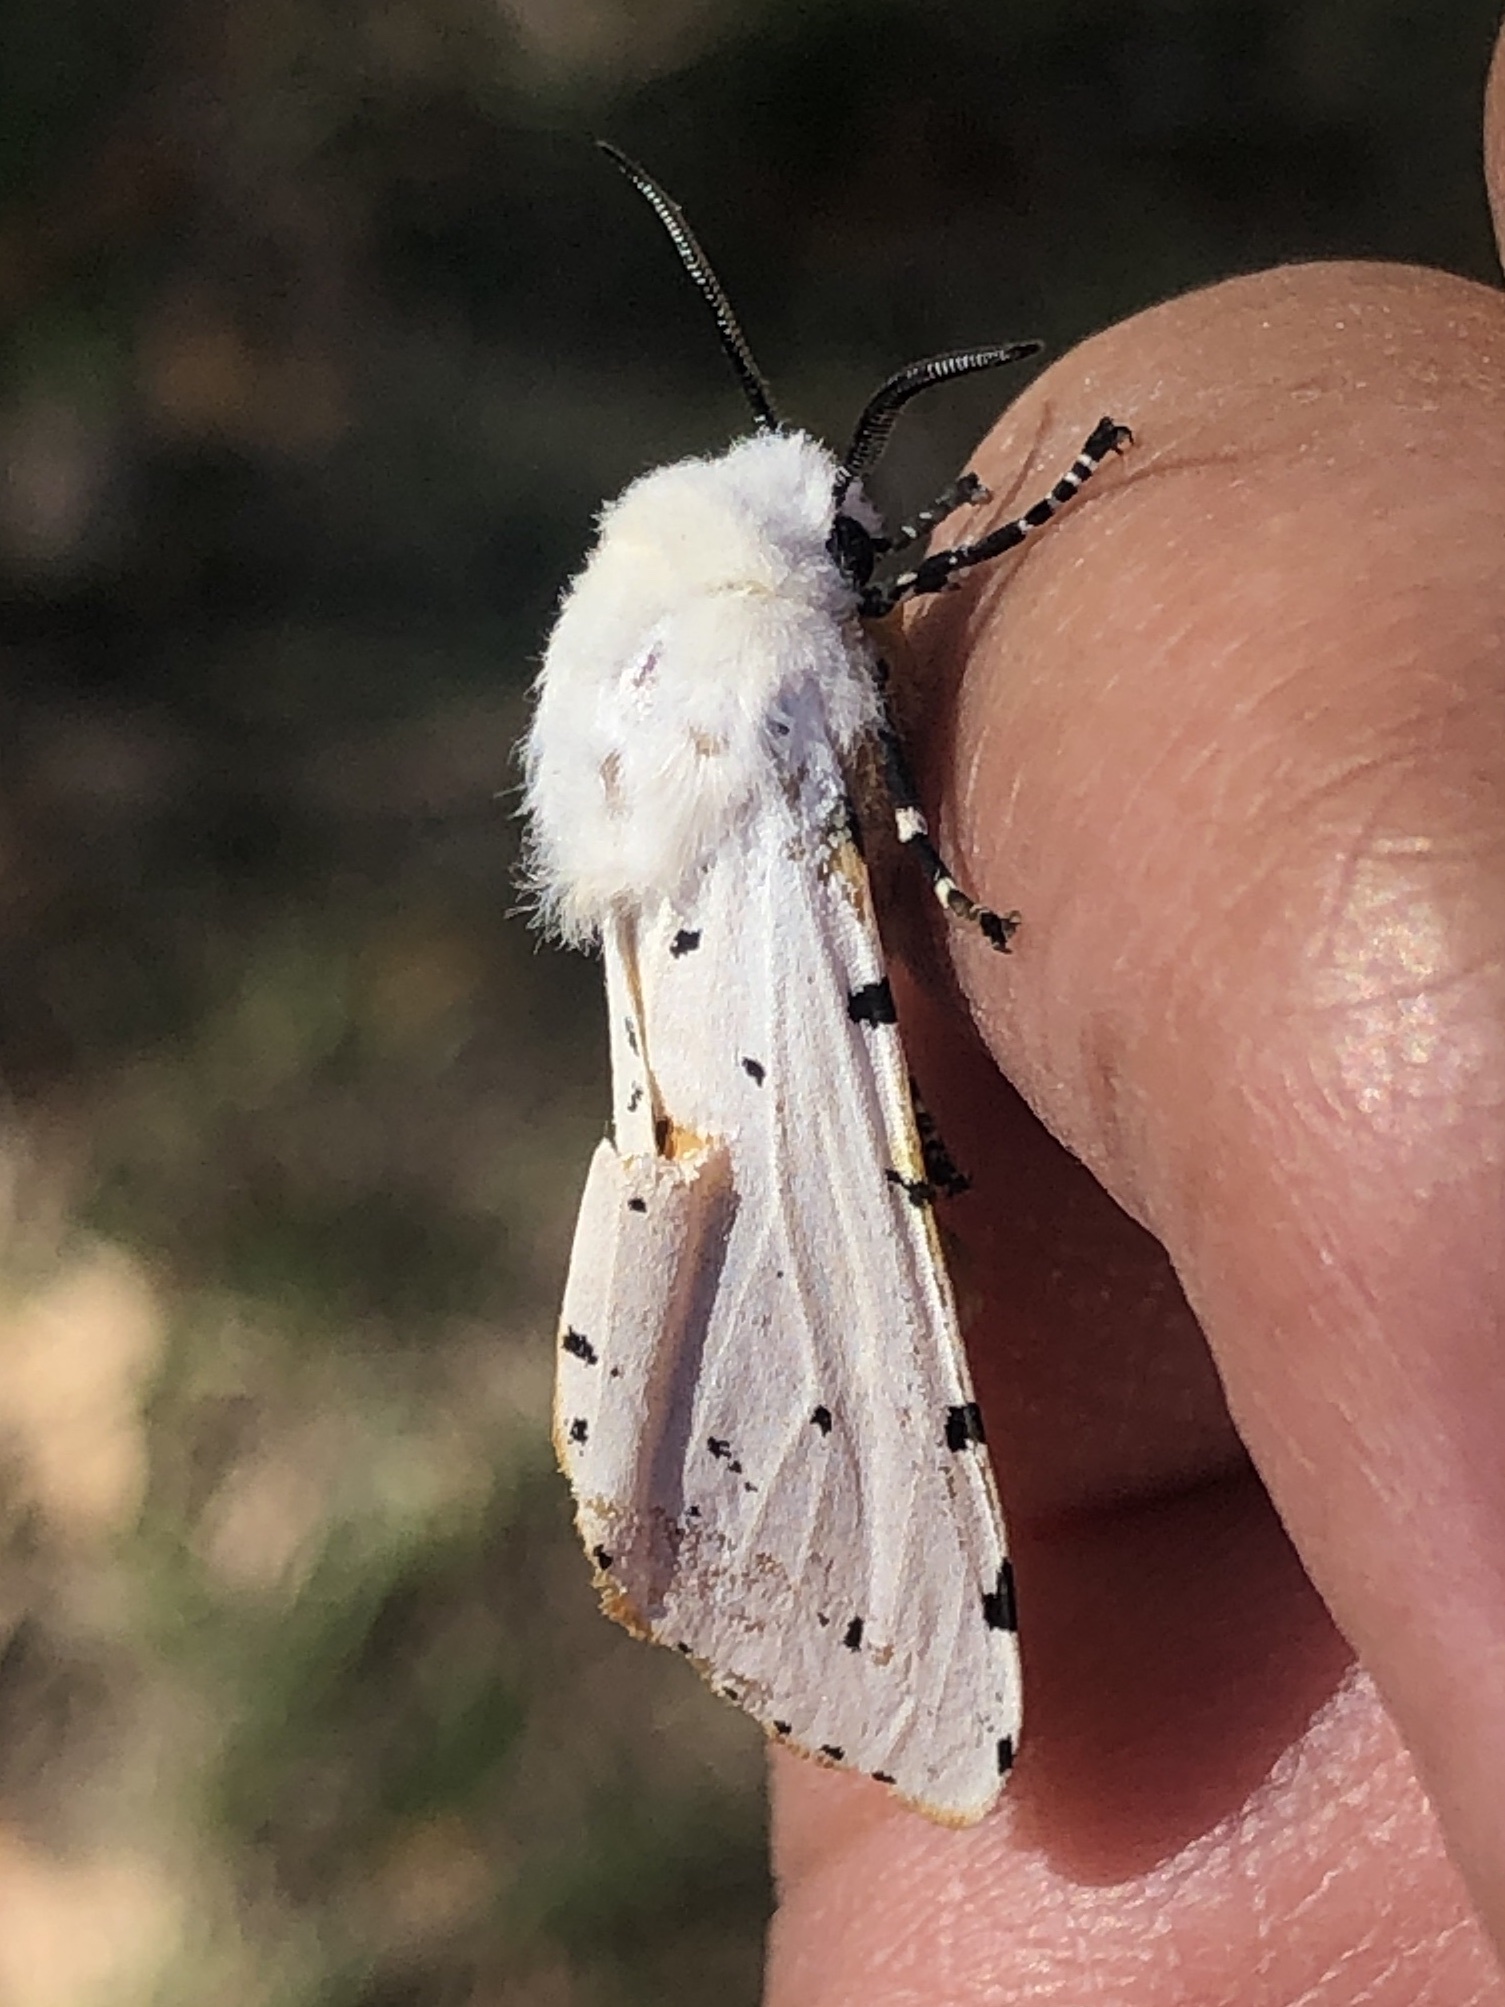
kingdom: Animalia
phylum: Arthropoda
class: Insecta
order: Lepidoptera
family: Erebidae
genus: Estigmene
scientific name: Estigmene acrea
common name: Salt marsh moth
